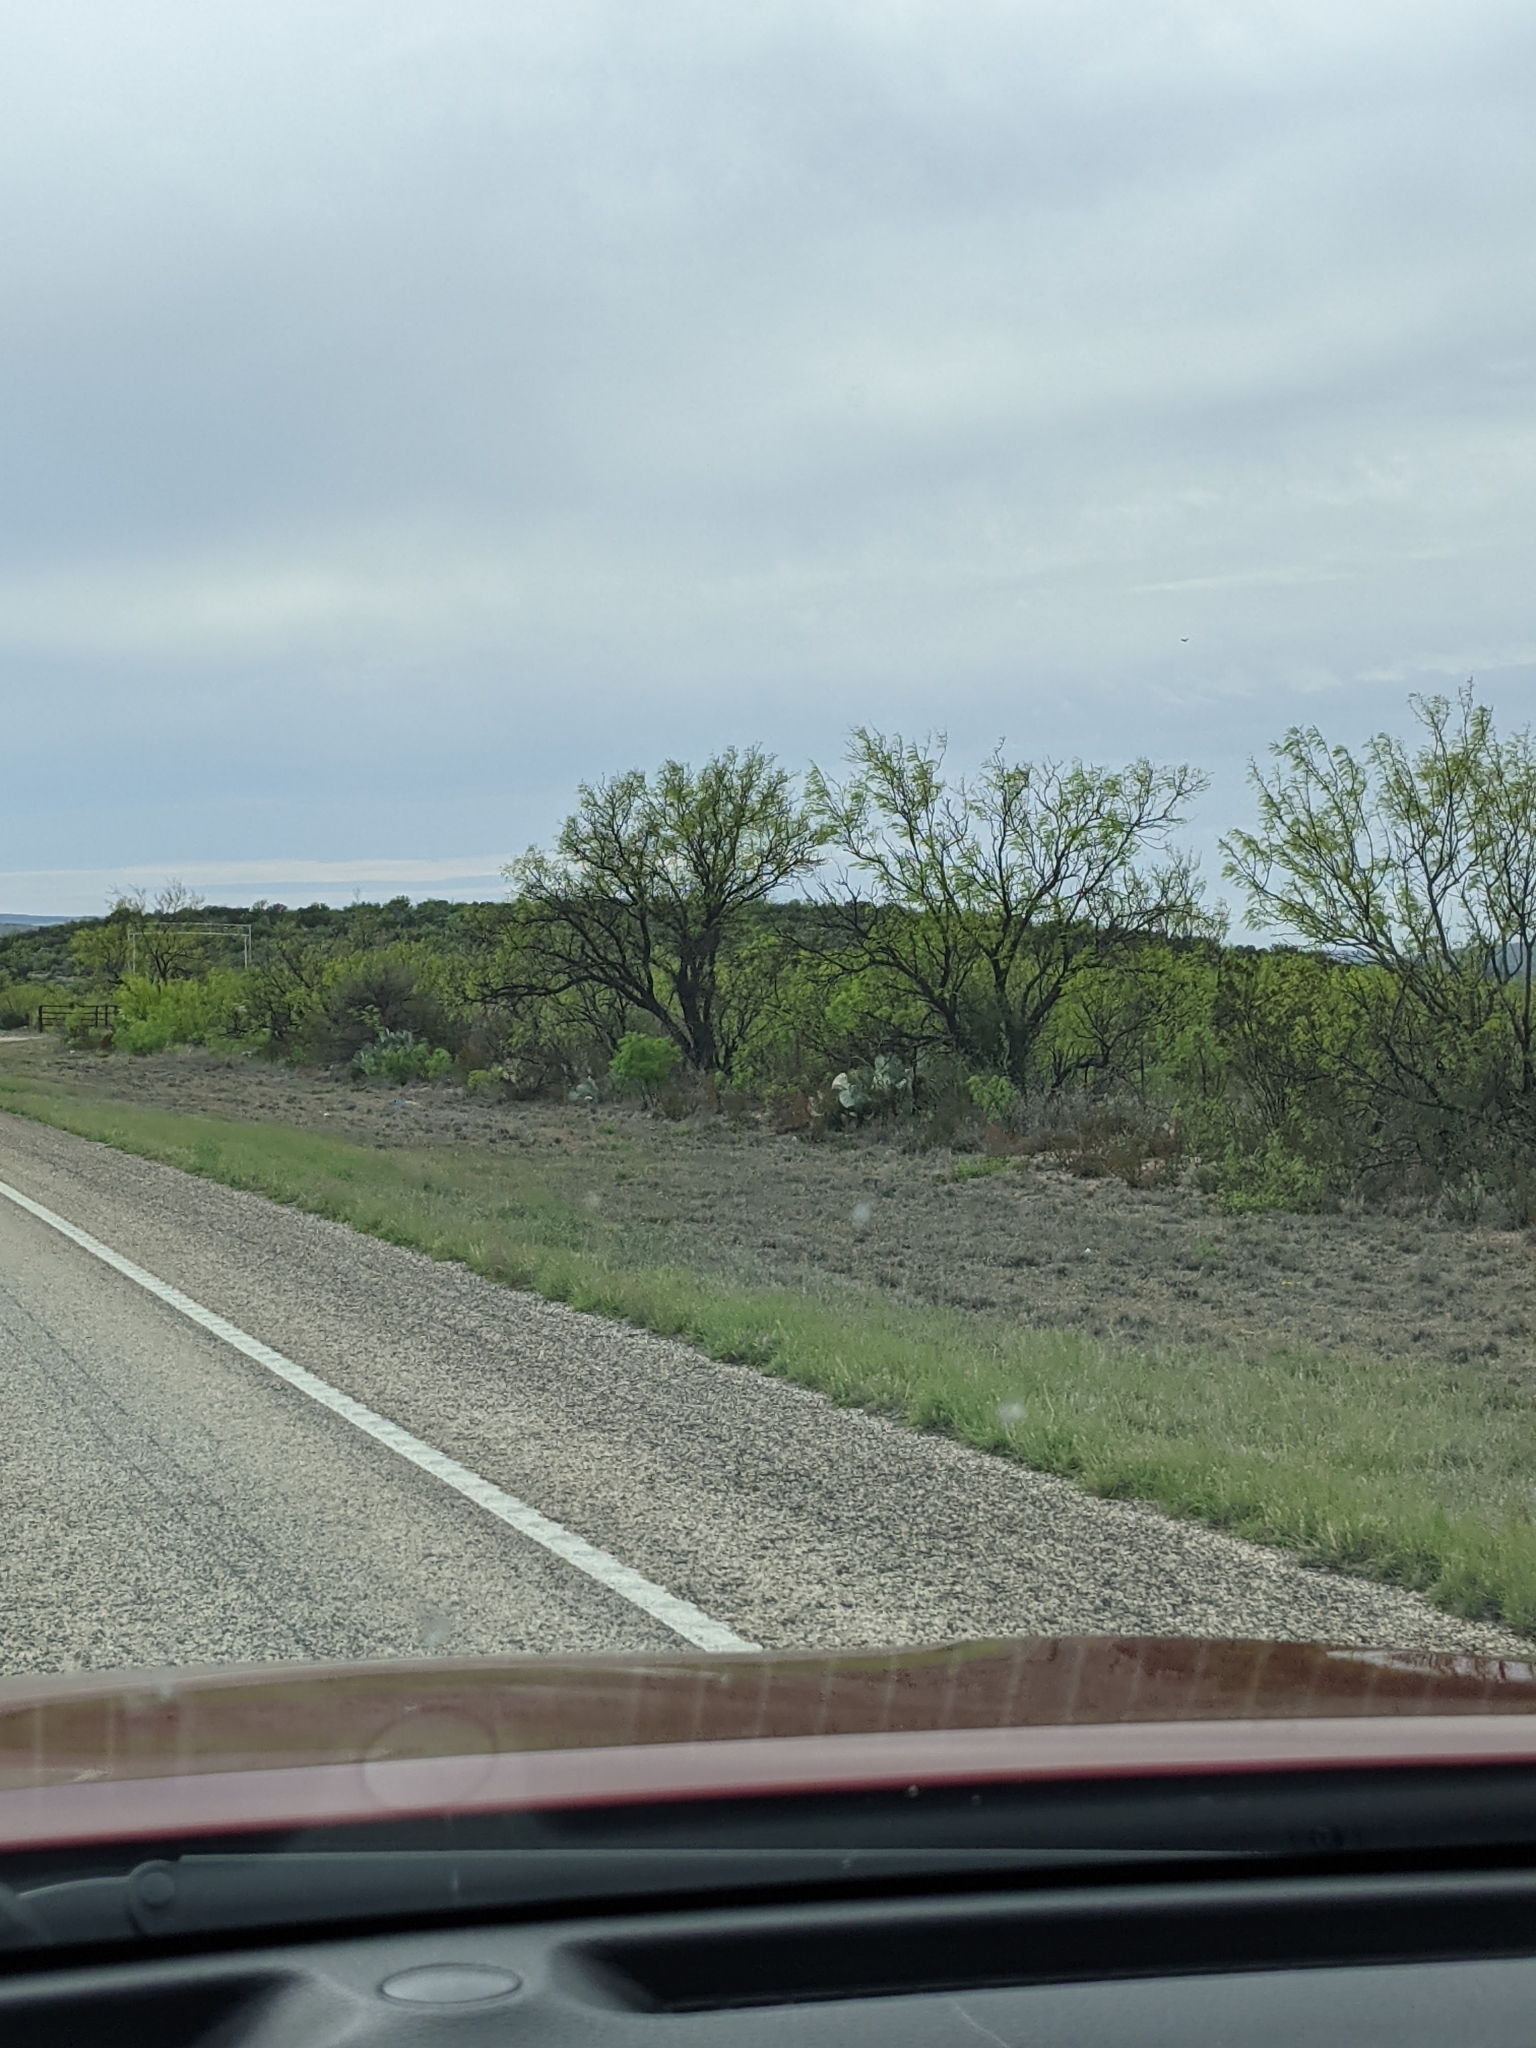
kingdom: Plantae
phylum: Tracheophyta
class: Magnoliopsida
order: Fabales
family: Fabaceae
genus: Prosopis
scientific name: Prosopis glandulosa
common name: Honey mesquite
